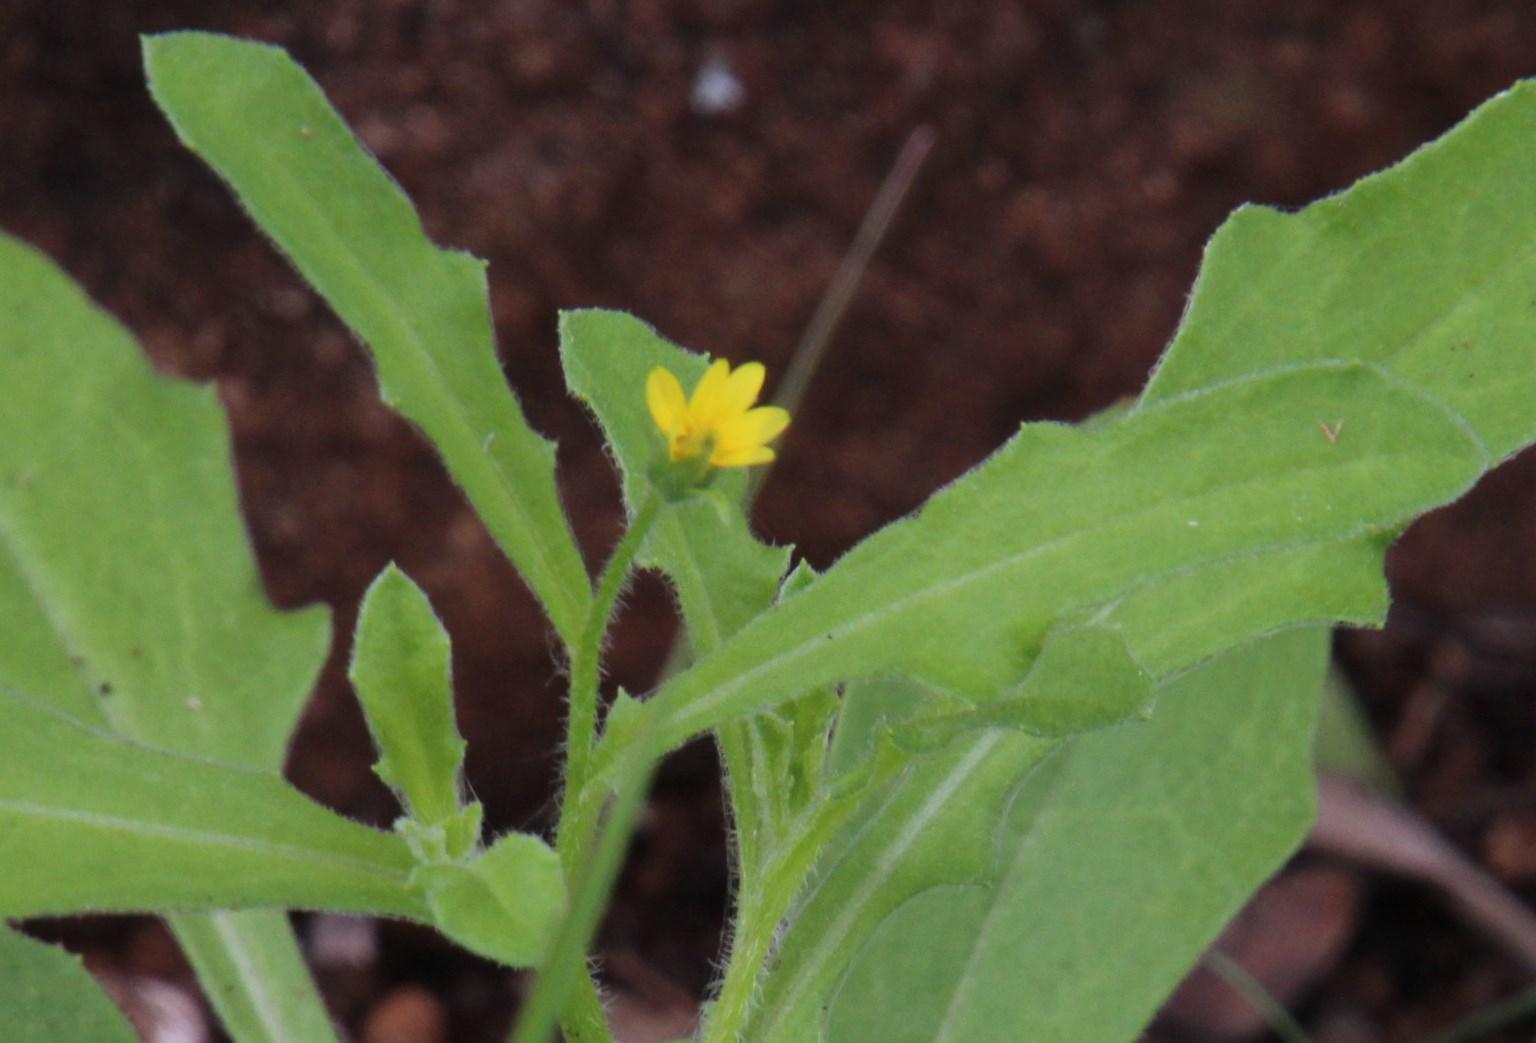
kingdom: Plantae
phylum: Tracheophyta
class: Magnoliopsida
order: Asterales
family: Asteraceae
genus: Osteospermum
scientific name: Osteospermum calendulaceum
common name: Stinking roger
